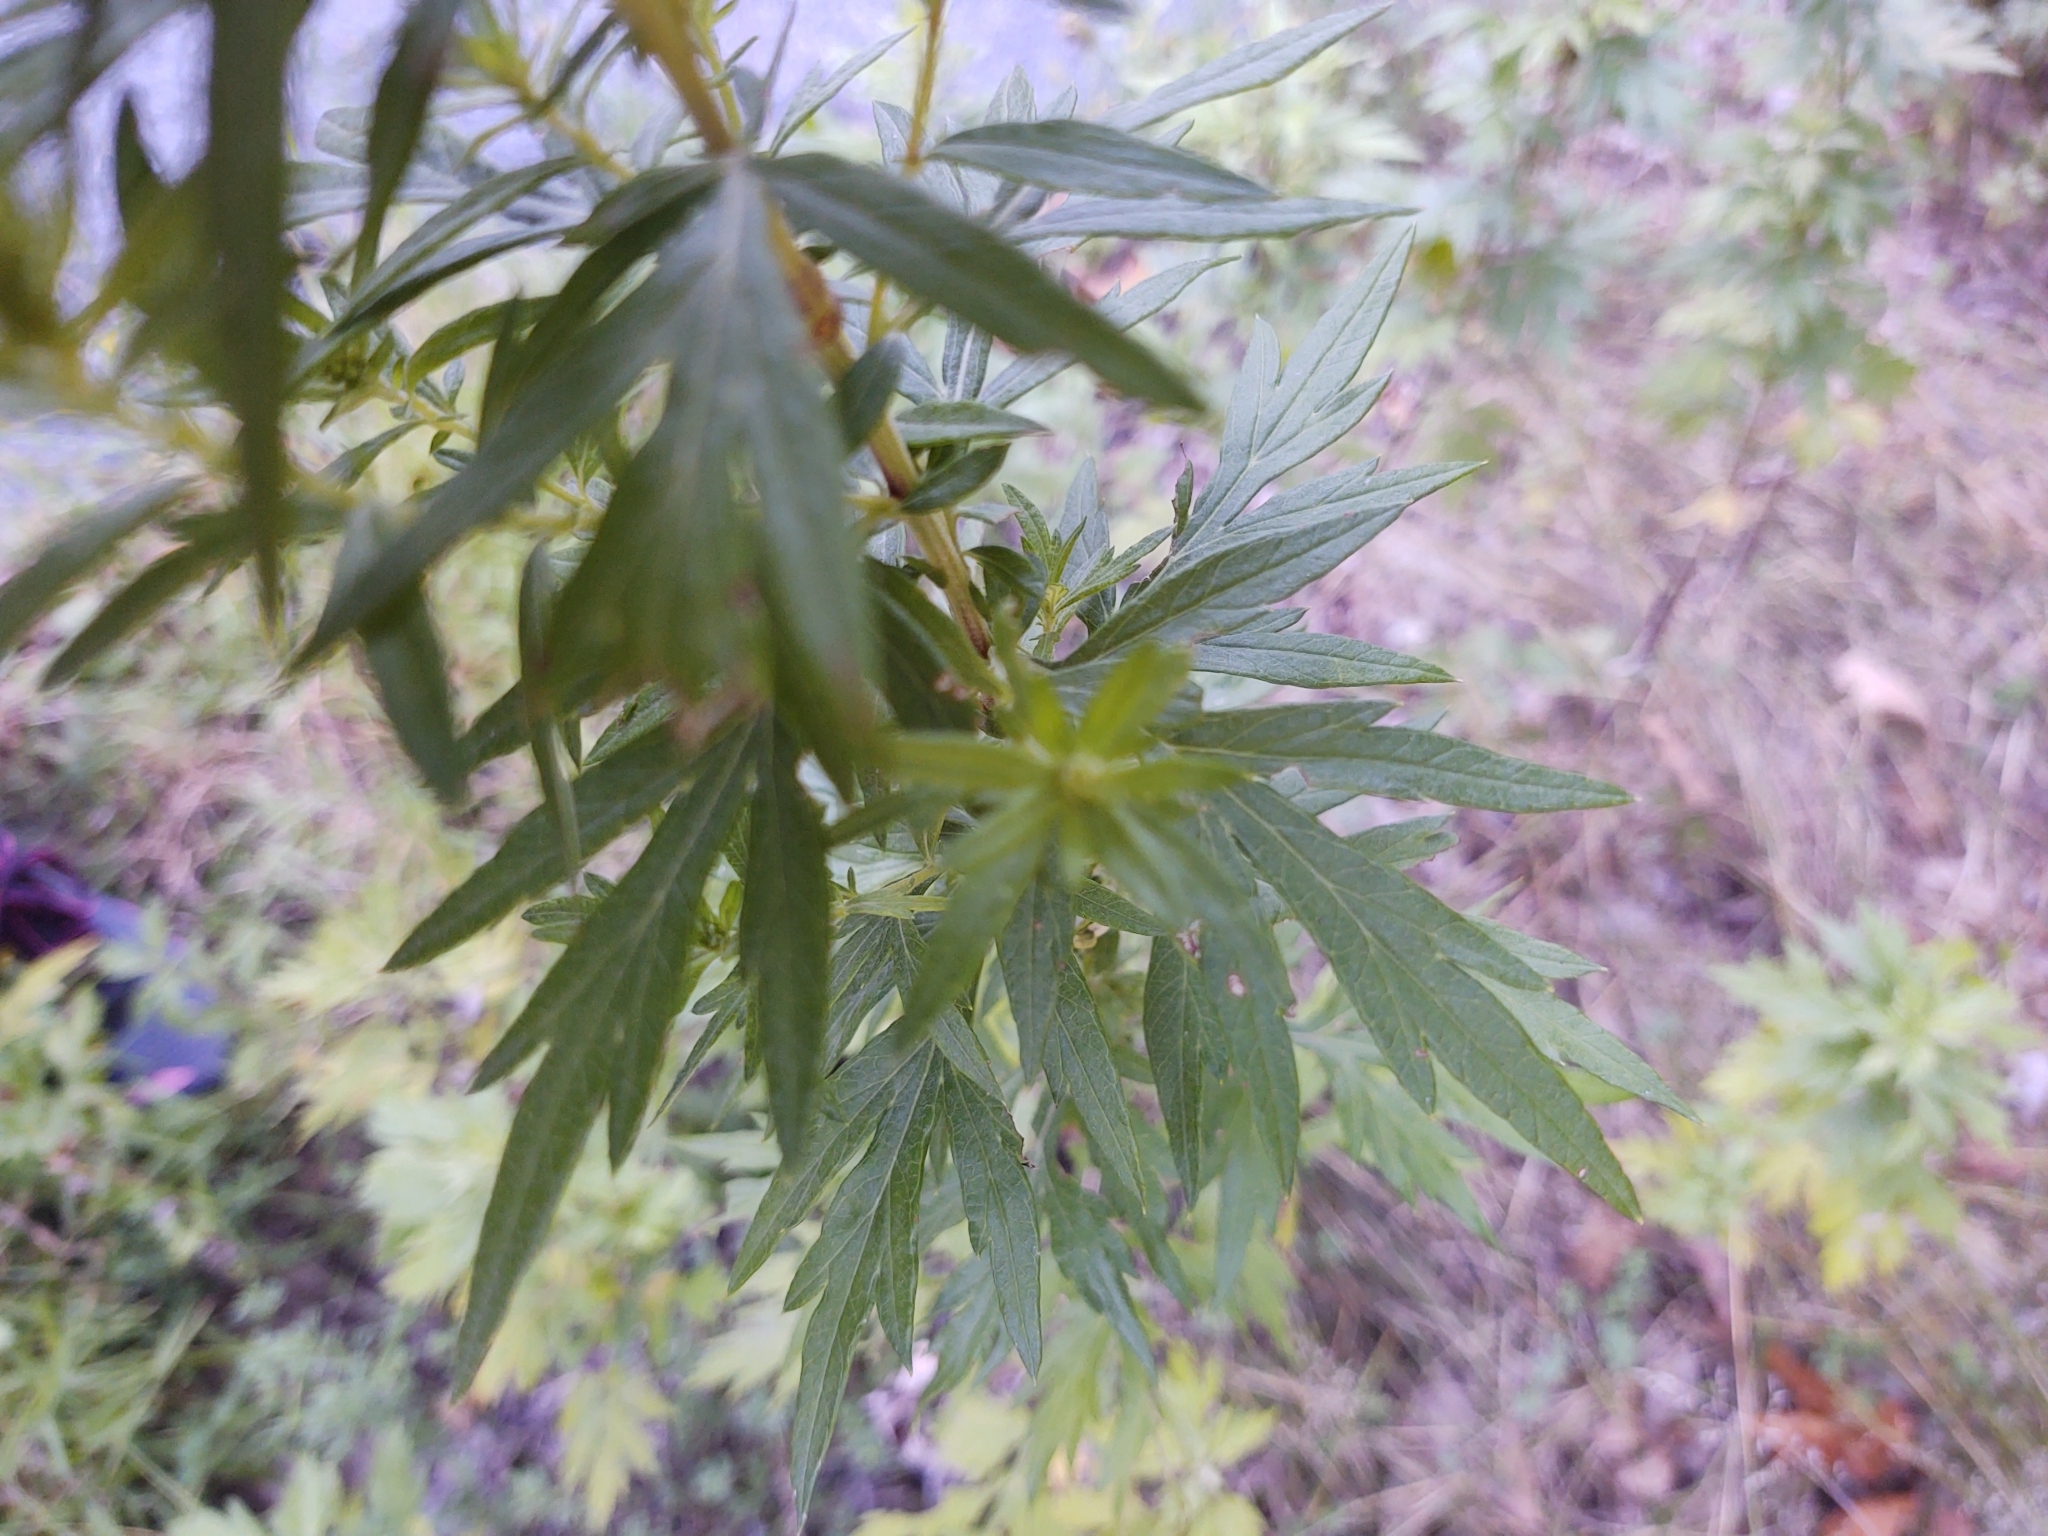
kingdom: Plantae
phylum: Tracheophyta
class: Magnoliopsida
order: Asterales
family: Asteraceae
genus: Artemisia
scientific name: Artemisia vulgaris
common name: Mugwort
